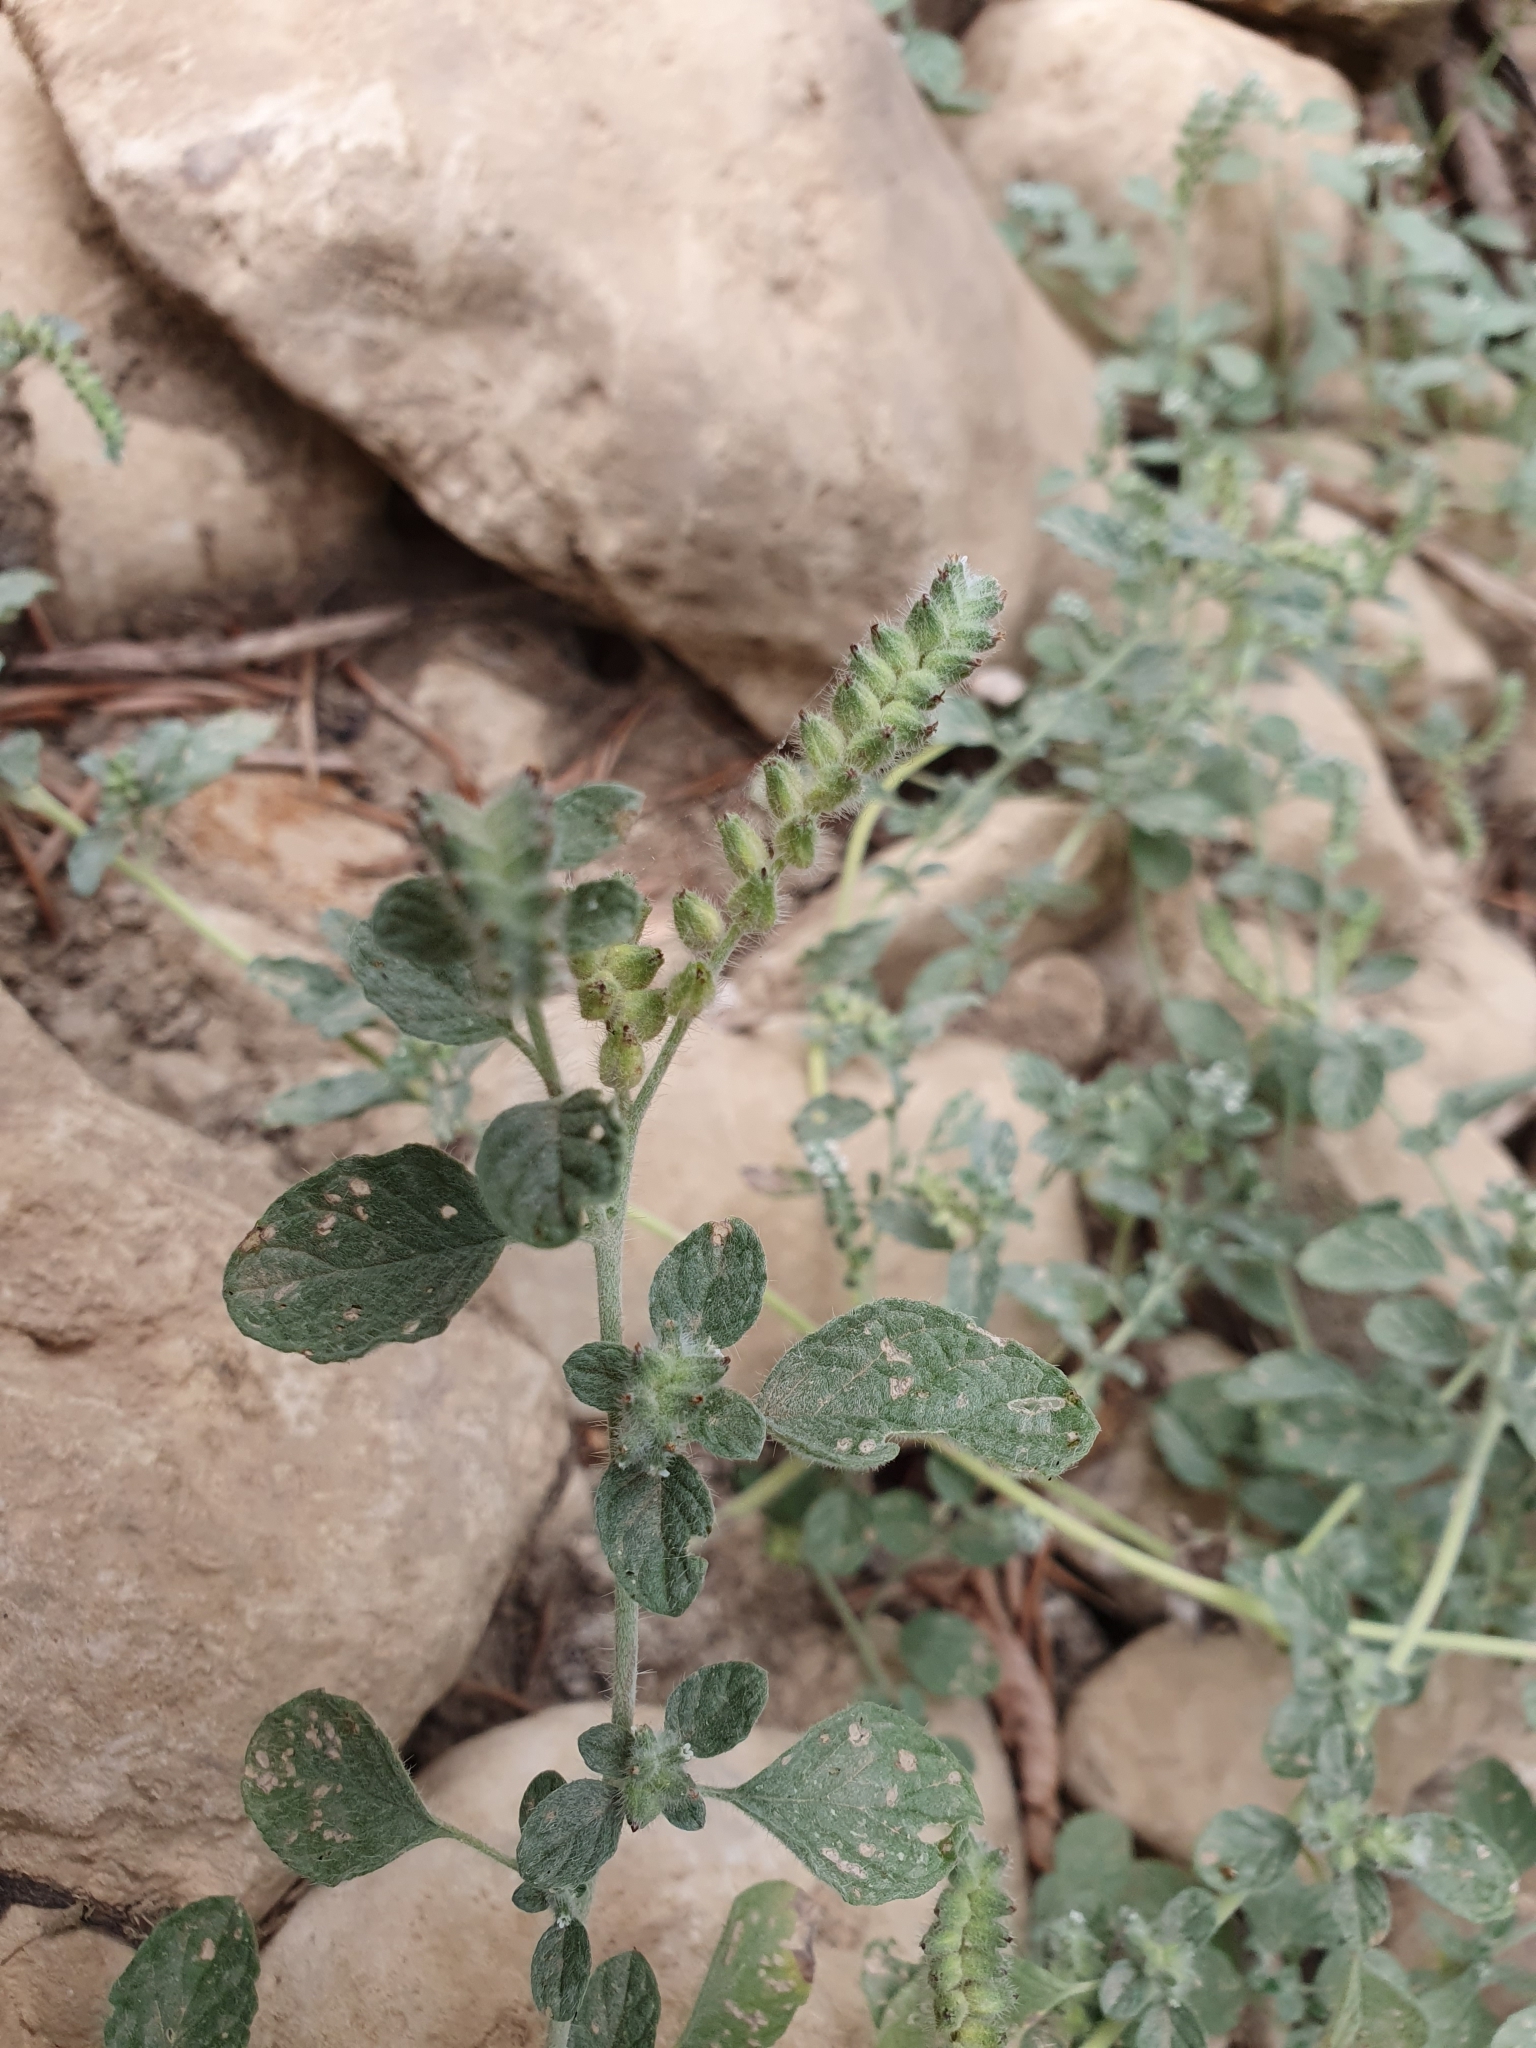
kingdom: Plantae
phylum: Tracheophyta
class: Magnoliopsida
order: Boraginales
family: Heliotropiaceae
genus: Heliotropium
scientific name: Heliotropium supinum
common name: Dwarf heliotrope
